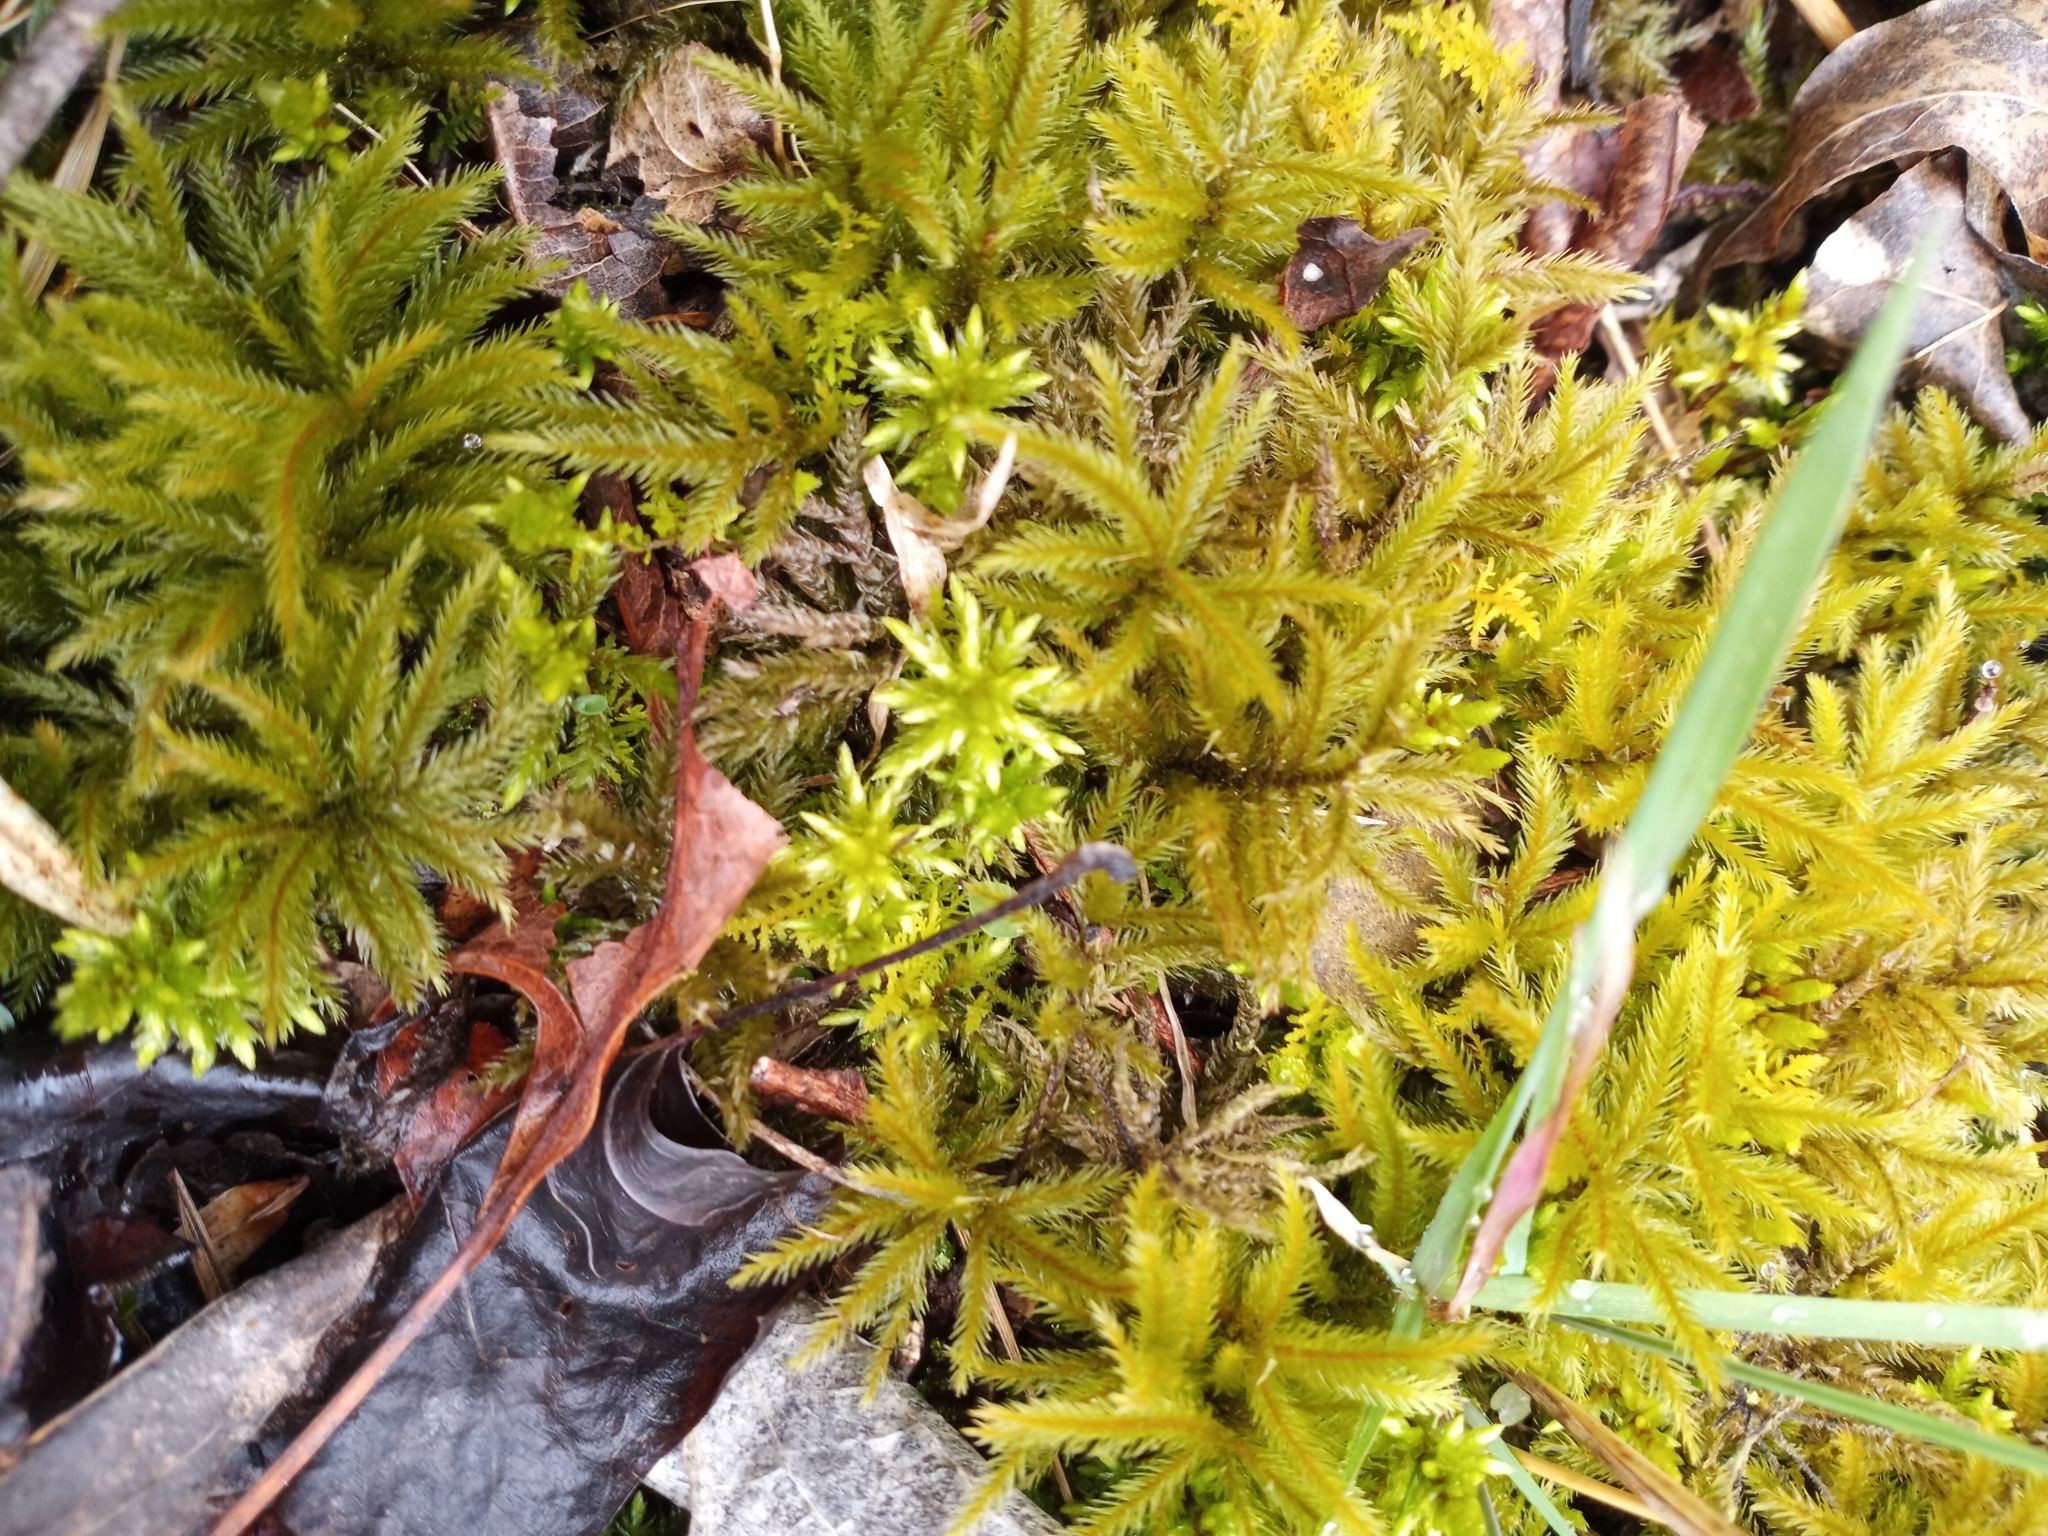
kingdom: Plantae
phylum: Bryophyta
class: Bryopsida
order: Hypnales
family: Climaciaceae
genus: Climacium
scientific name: Climacium americanum
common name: American tree moss
